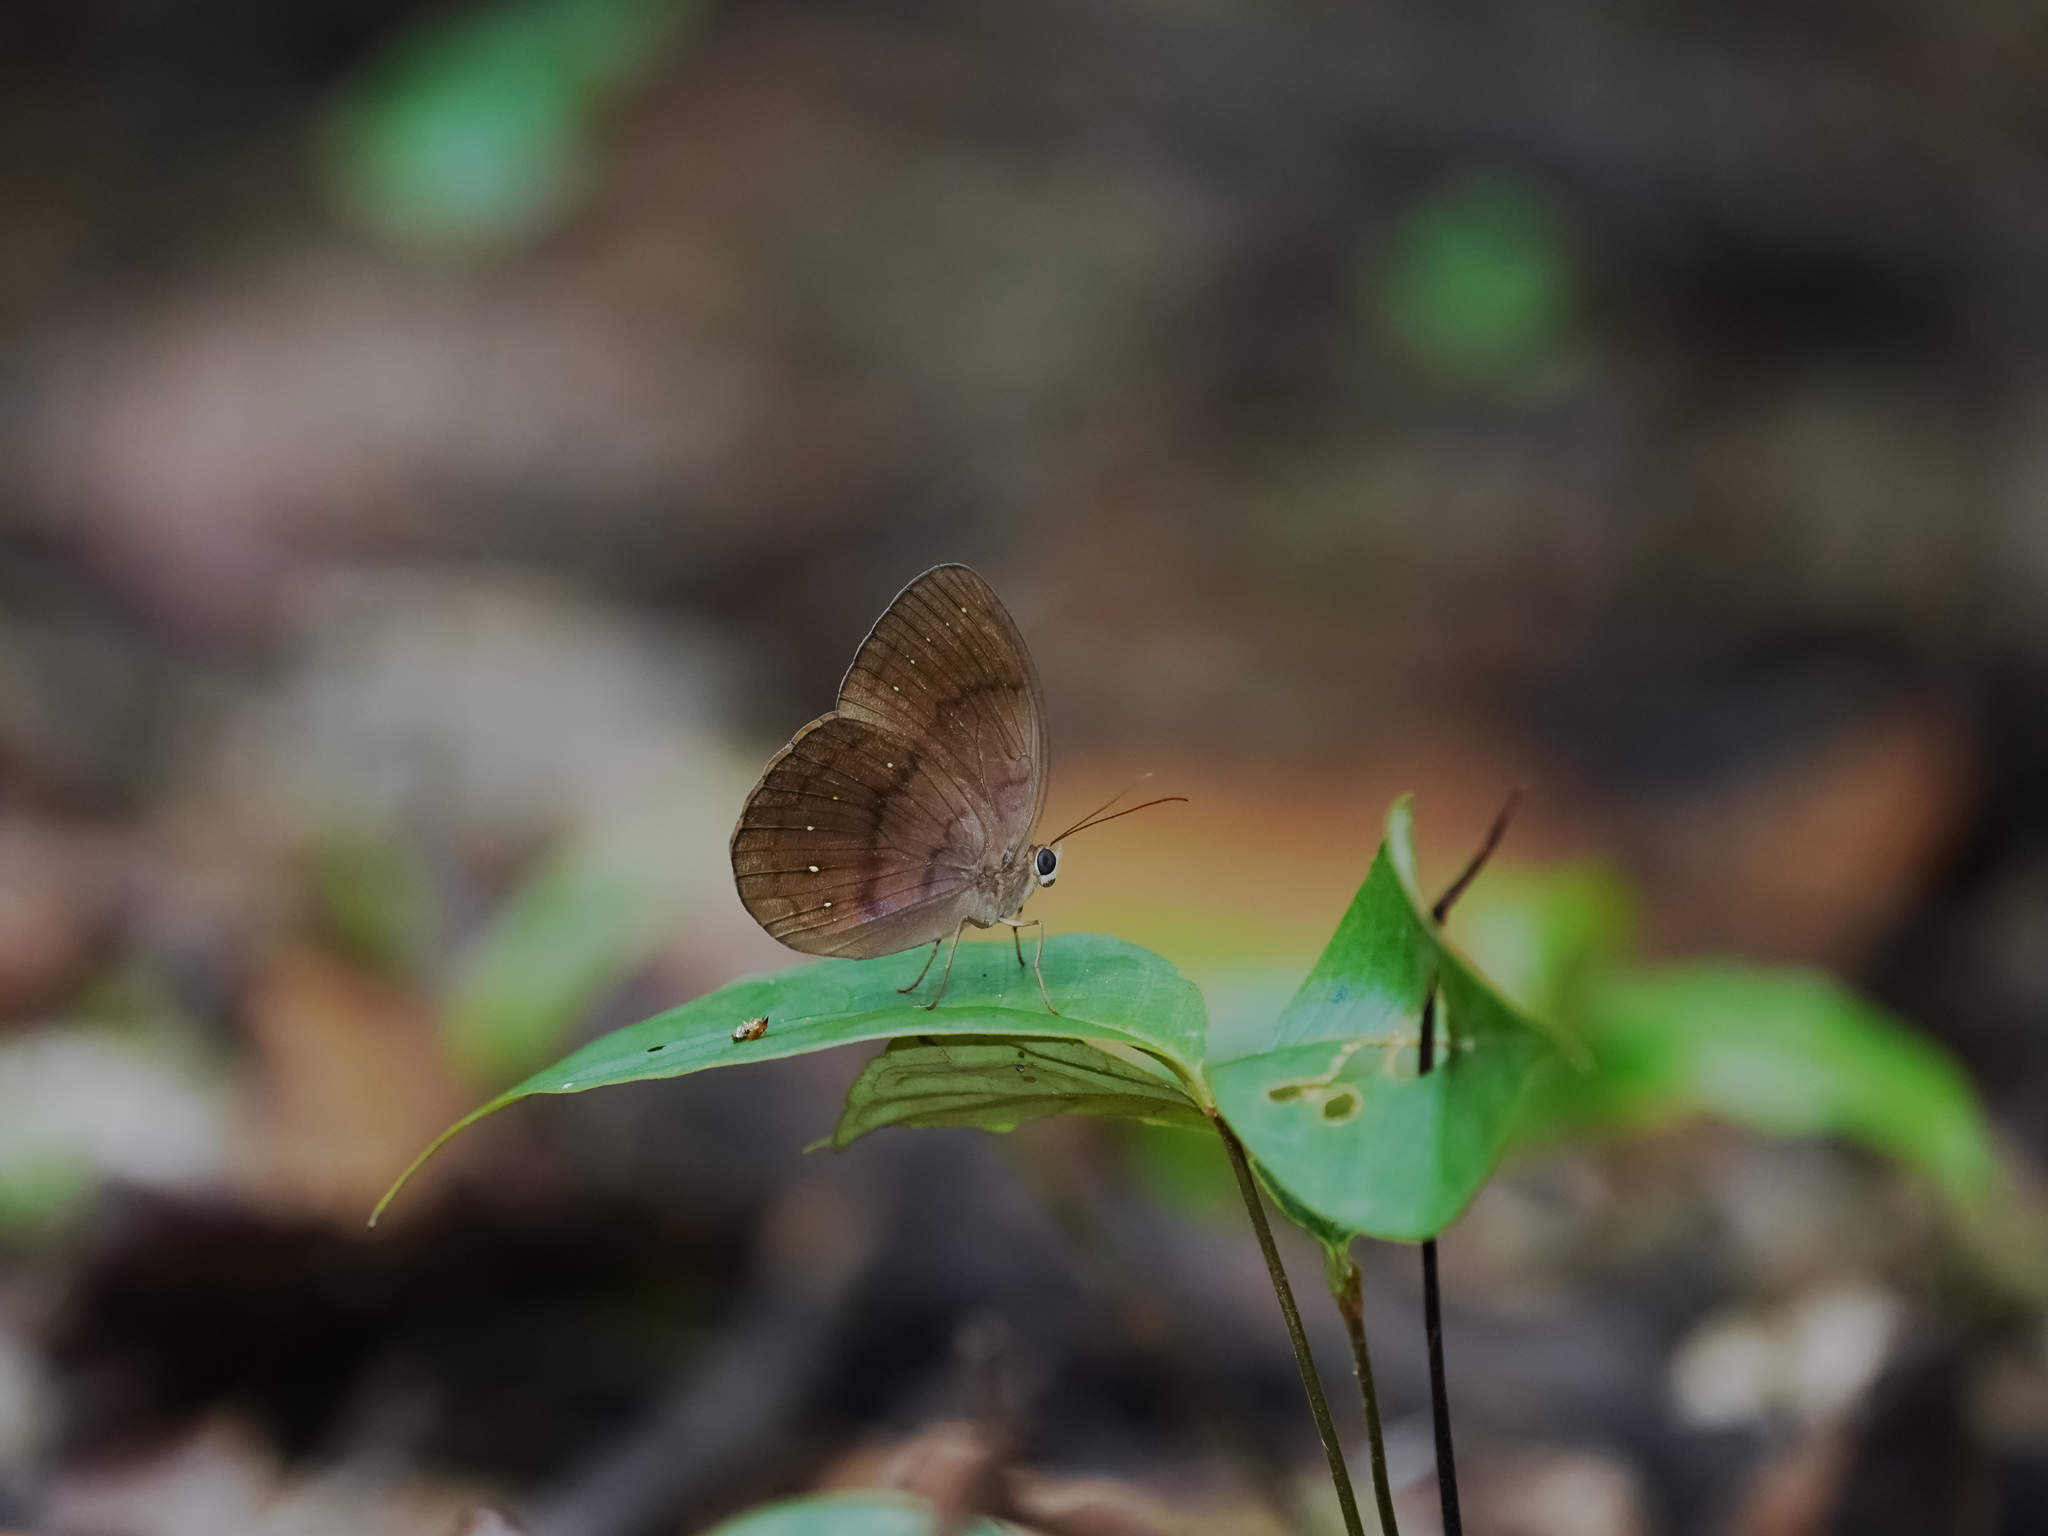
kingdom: Animalia
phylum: Arthropoda
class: Insecta
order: Lepidoptera
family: Nymphalidae
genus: Faunis
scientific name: Faunis canens
